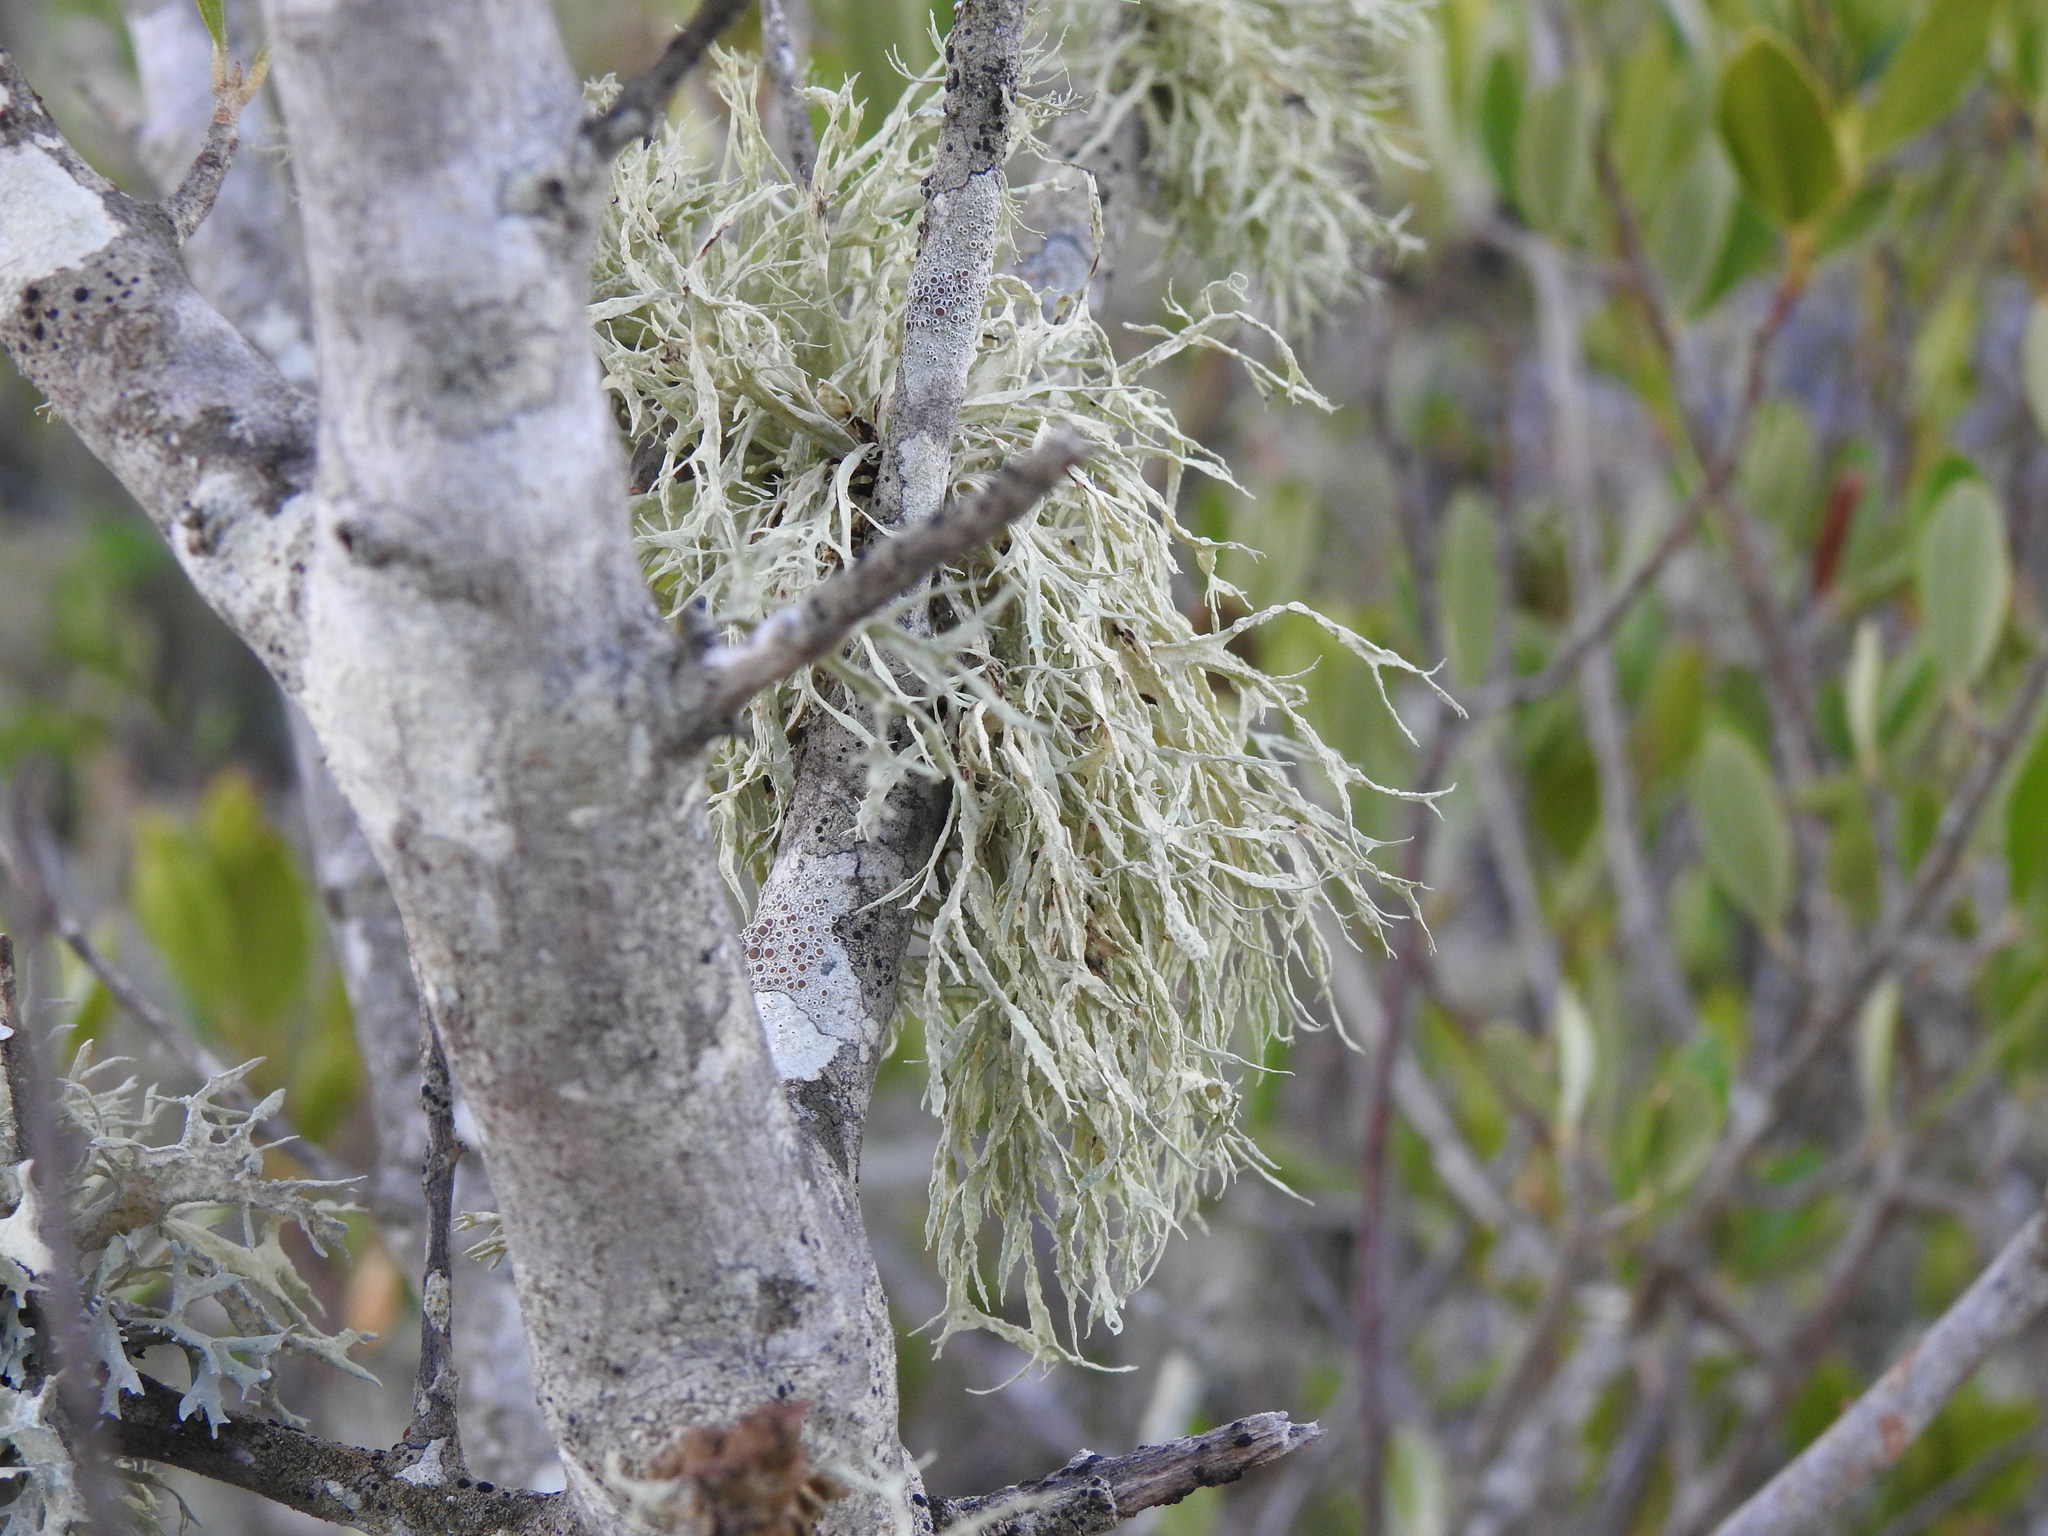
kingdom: Fungi
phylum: Ascomycota
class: Lecanoromycetes
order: Lecanorales
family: Ramalinaceae
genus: Ramalina
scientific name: Ramalina farinacea
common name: Farinose cartilage lichen
